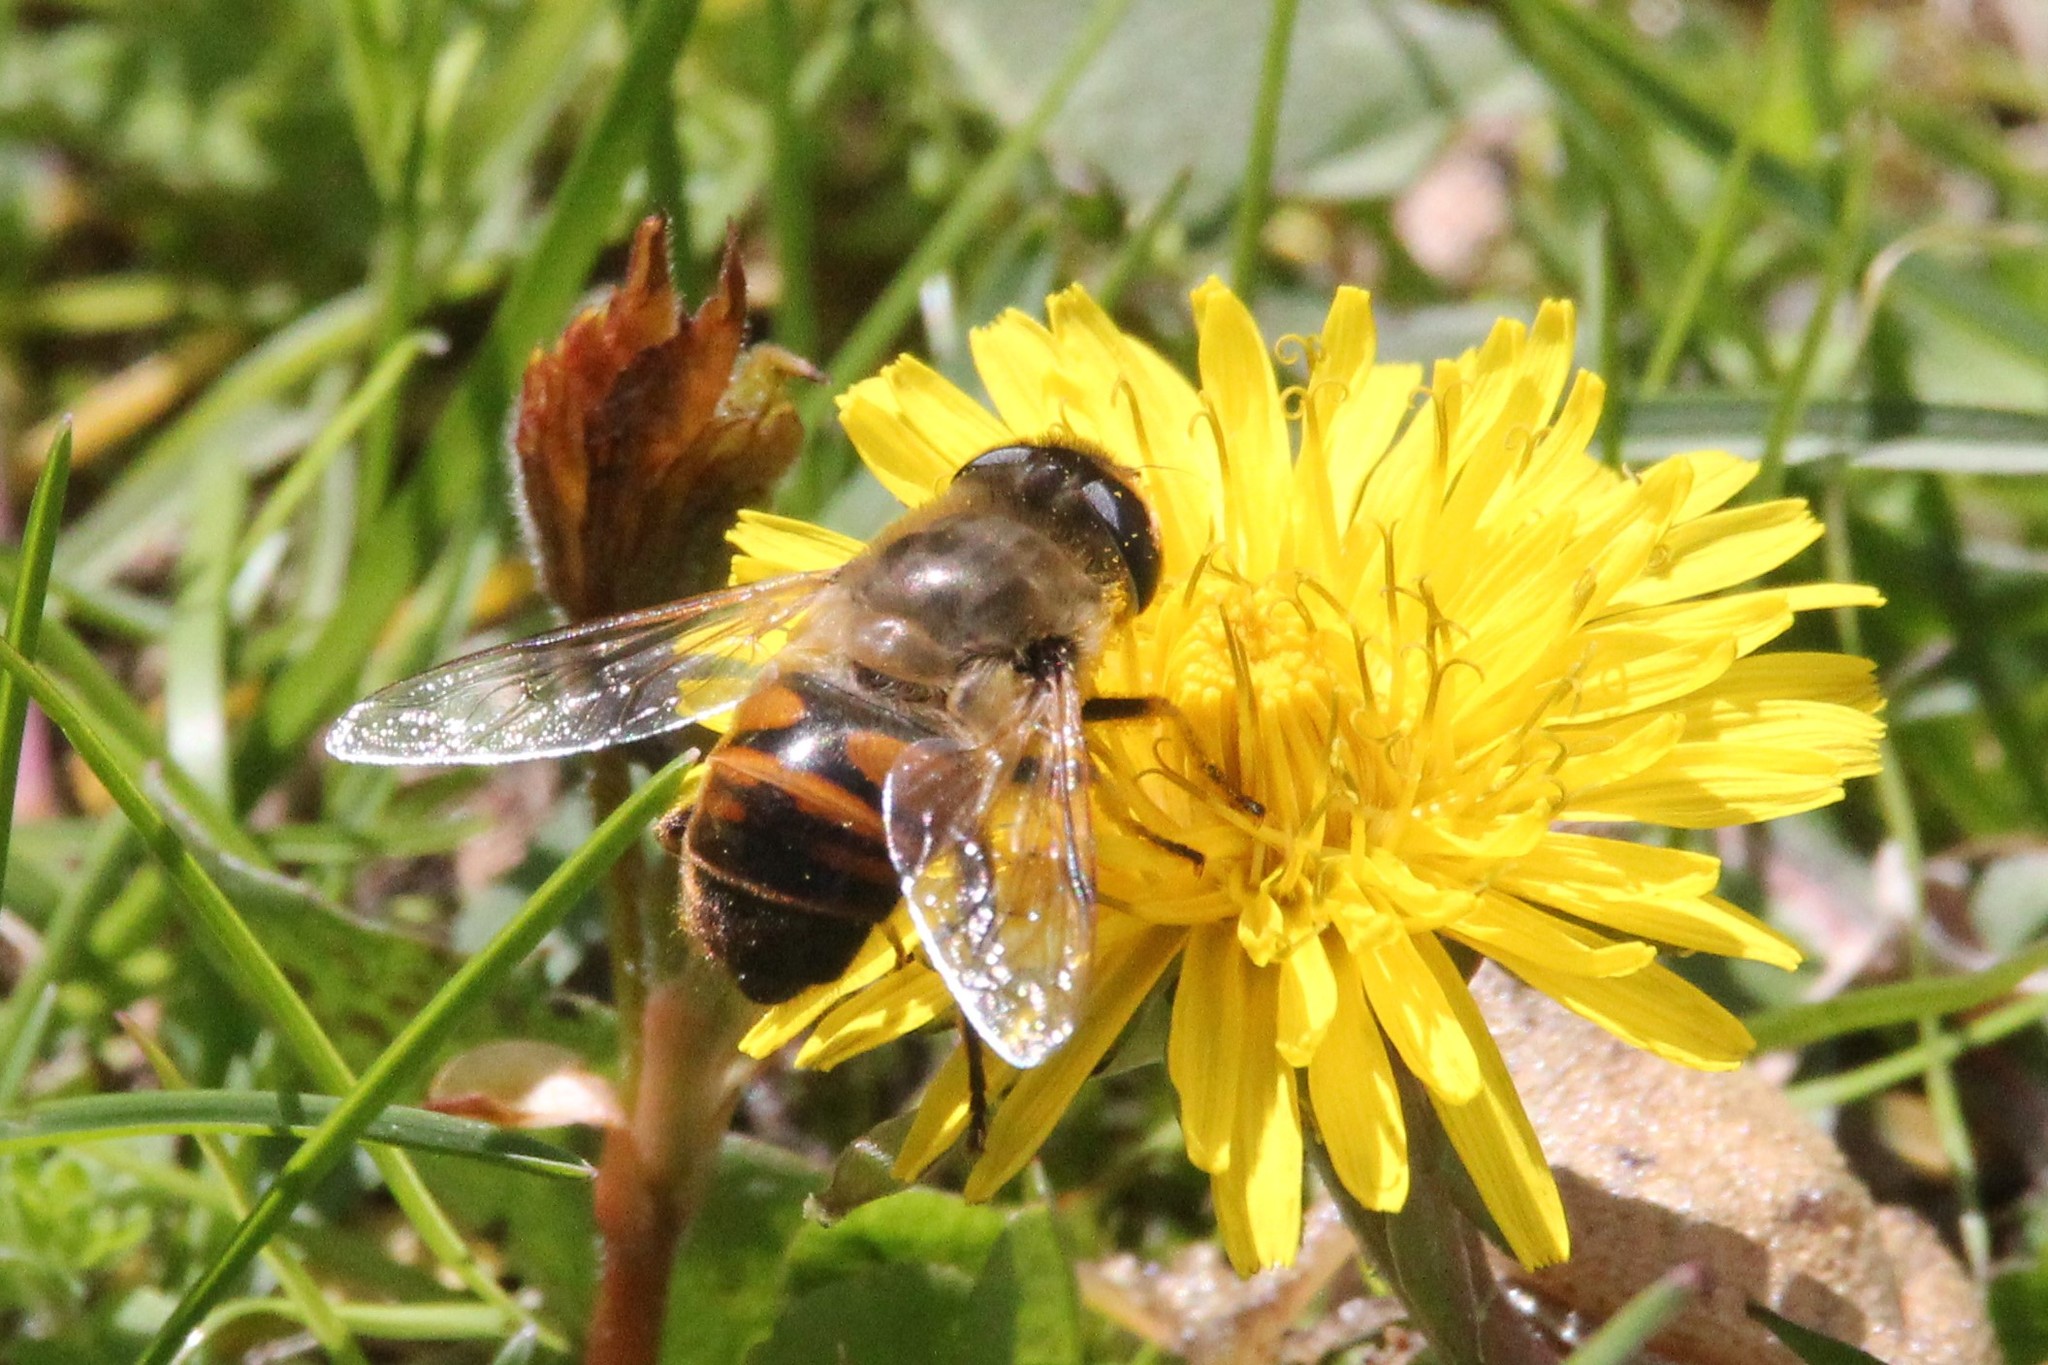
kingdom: Animalia
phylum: Arthropoda
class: Insecta
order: Diptera
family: Syrphidae
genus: Eristalis
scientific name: Eristalis tenax
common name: Drone fly
